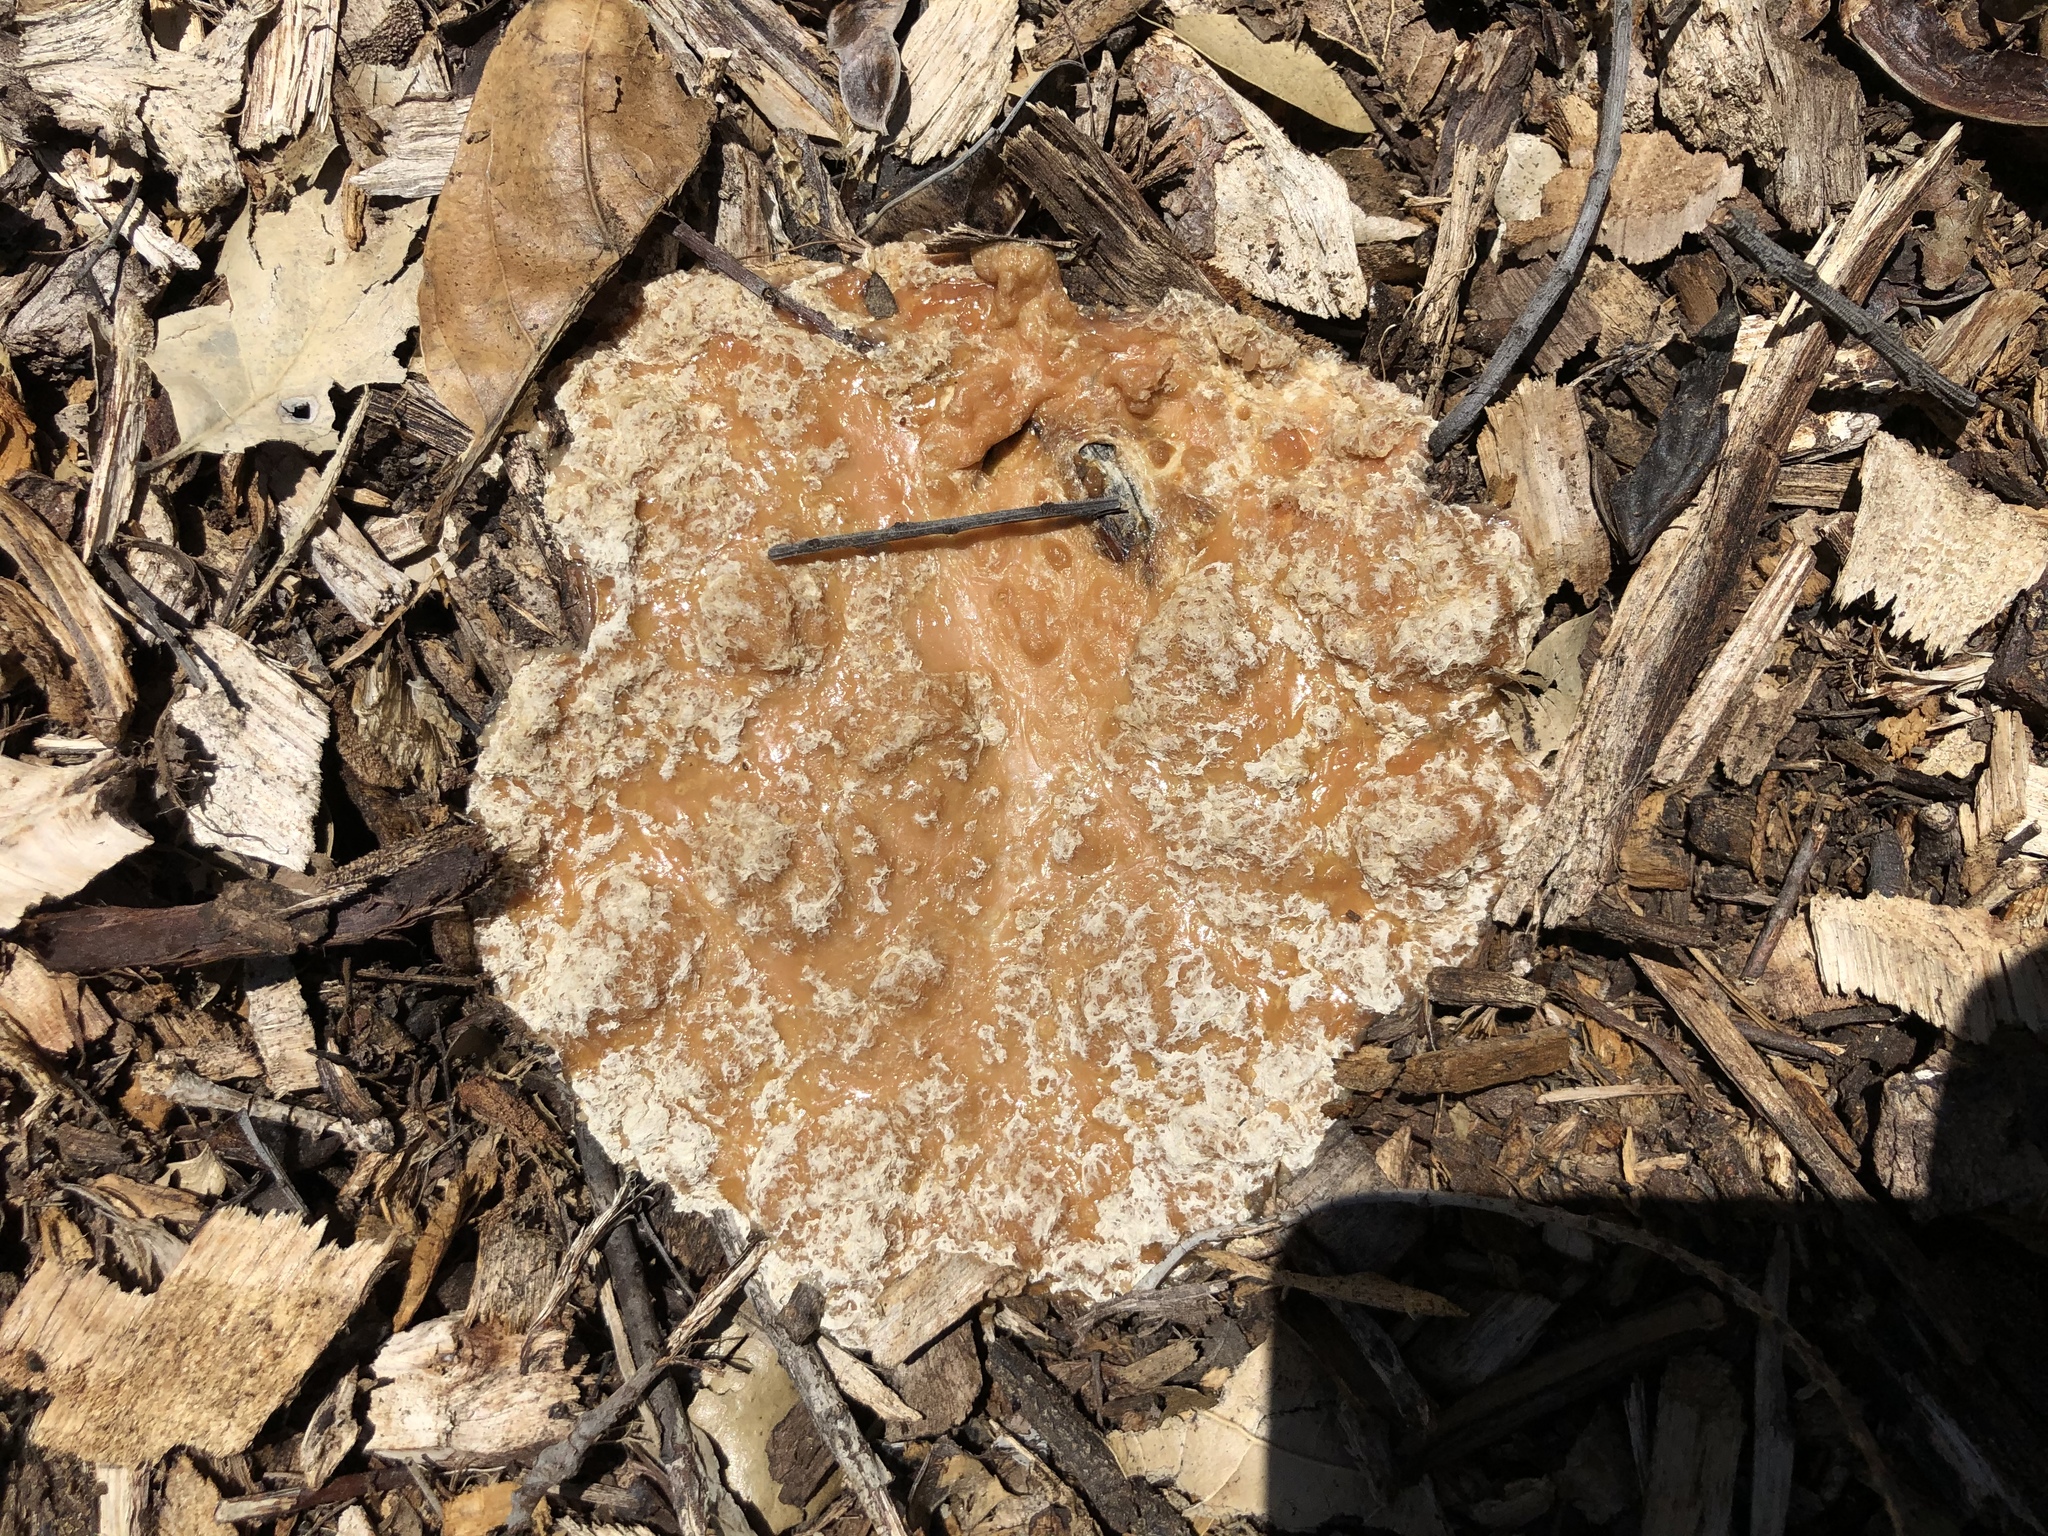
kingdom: Protozoa
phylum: Mycetozoa
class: Myxomycetes
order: Physarales
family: Physaraceae
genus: Fuligo
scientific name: Fuligo septica
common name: Dog vomit slime mold
